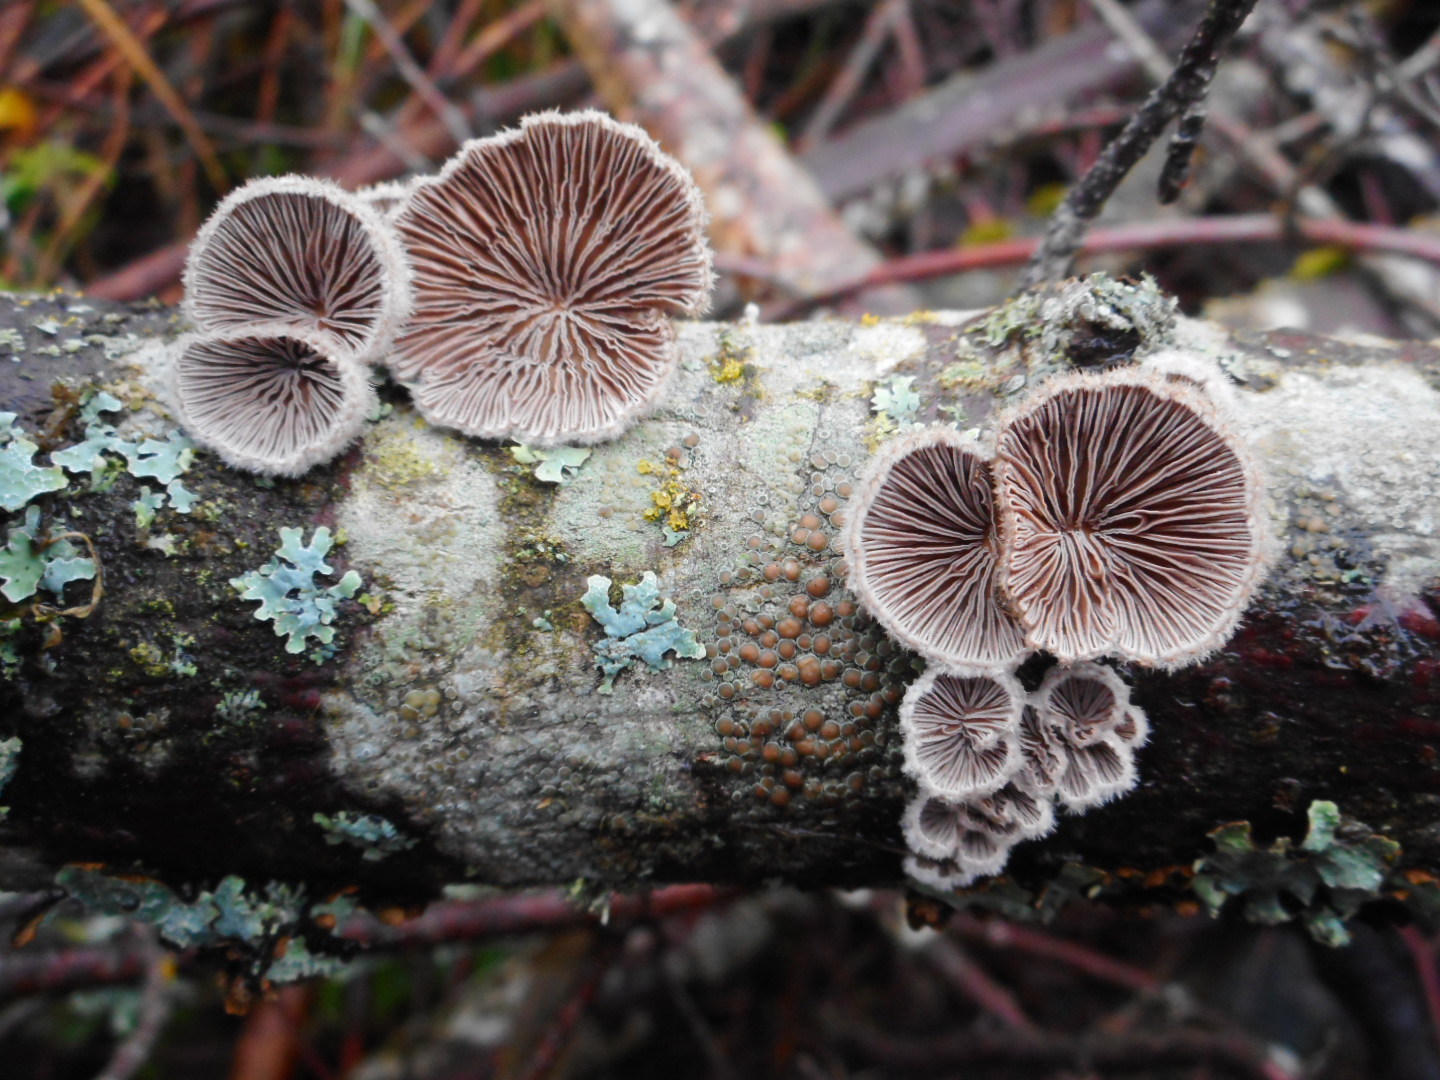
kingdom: Fungi
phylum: Basidiomycota
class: Agaricomycetes
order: Agaricales
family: Schizophyllaceae
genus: Schizophyllum
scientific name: Schizophyllum commune
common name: Common porecrust
